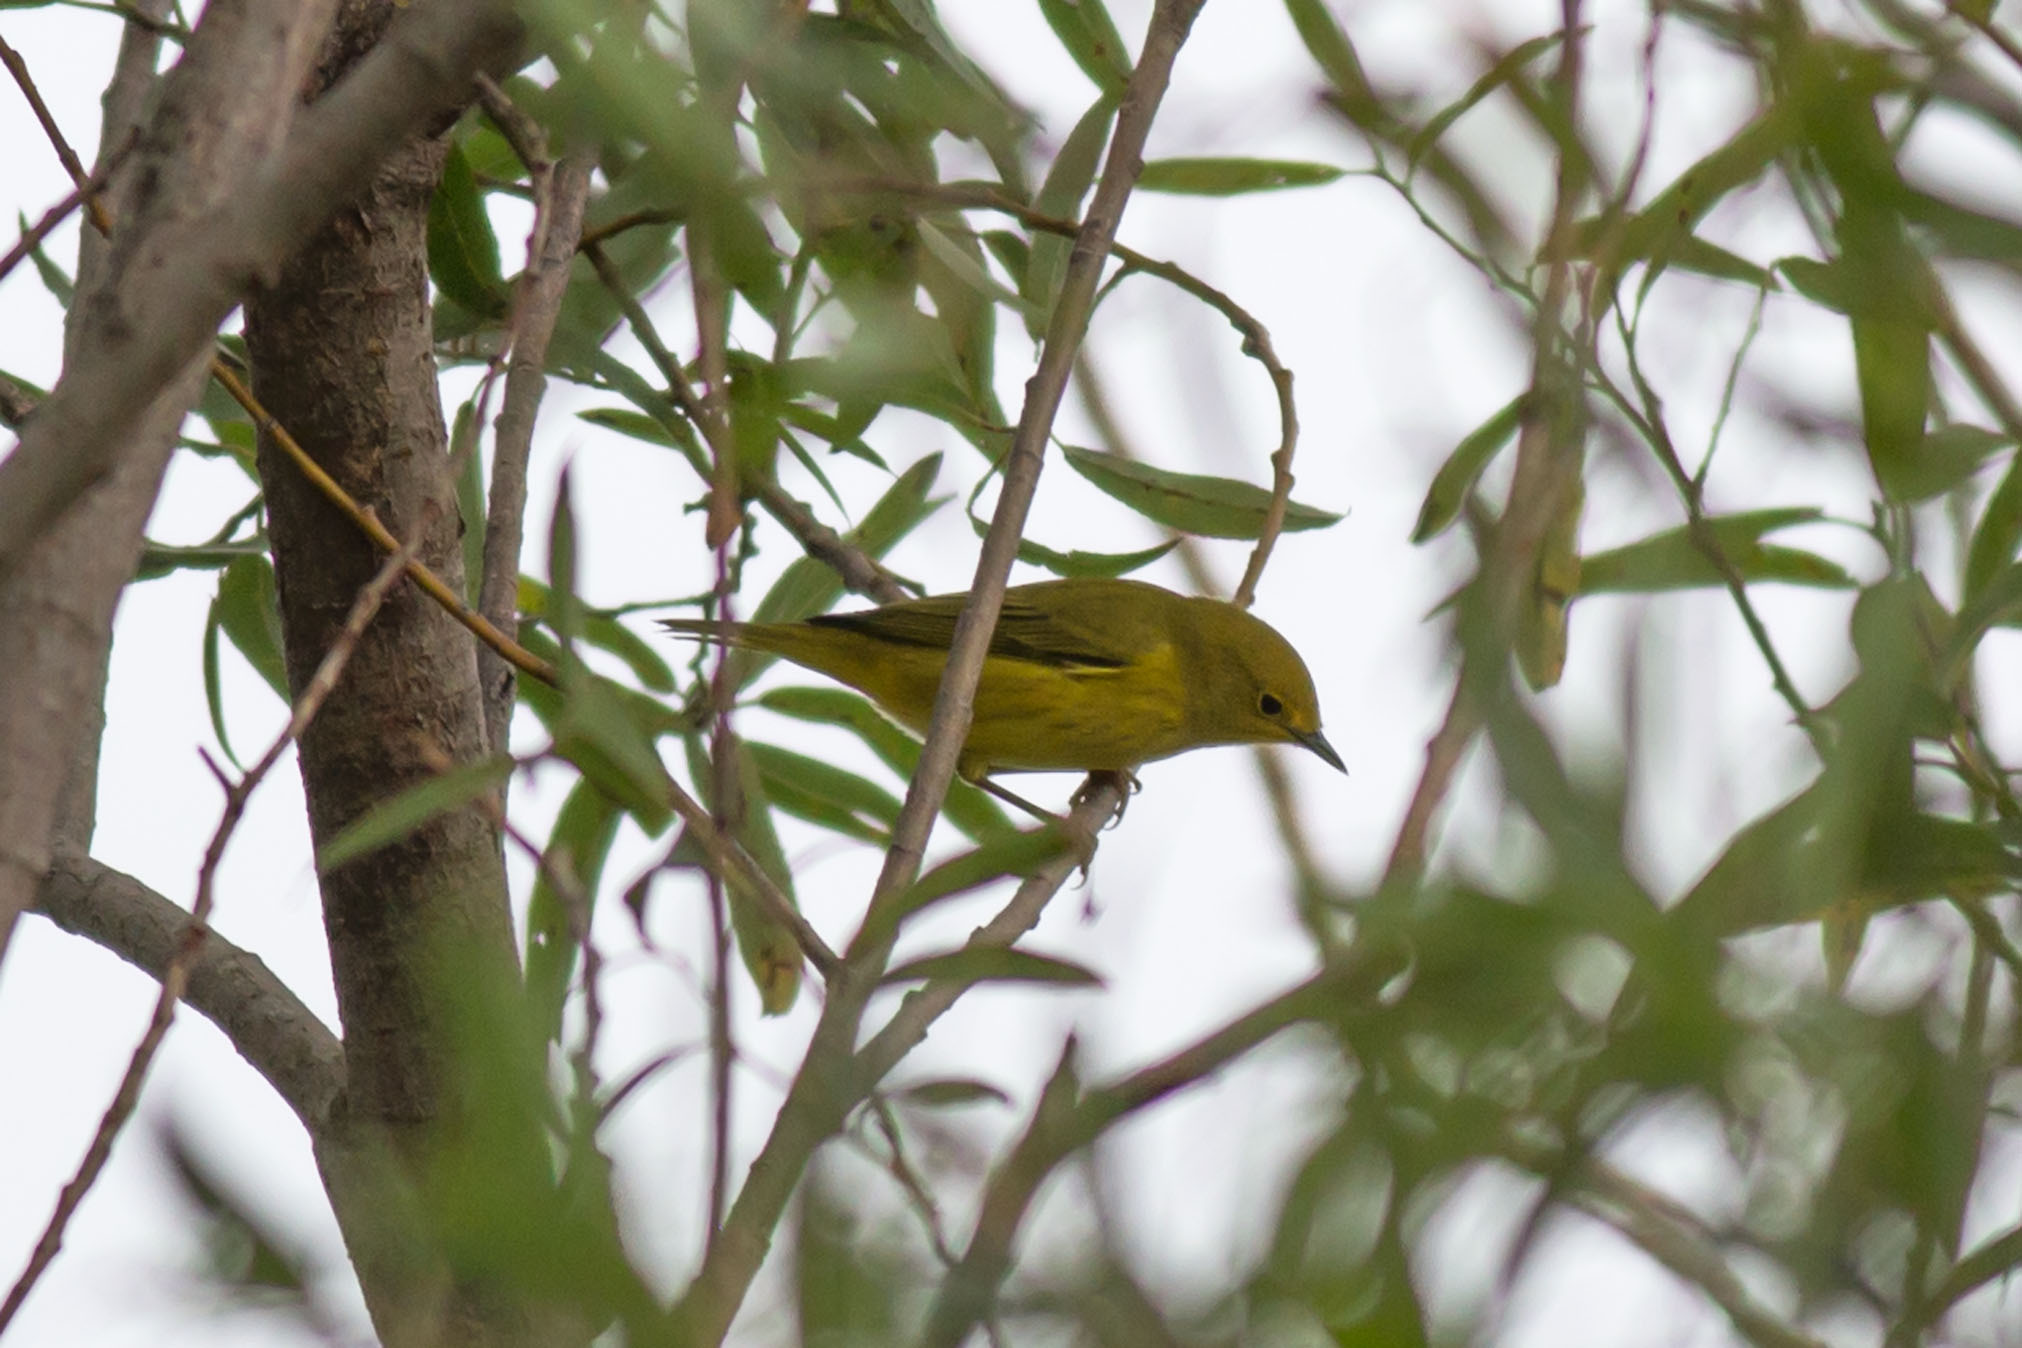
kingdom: Animalia
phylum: Chordata
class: Aves
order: Passeriformes
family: Parulidae
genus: Setophaga
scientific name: Setophaga petechia
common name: Yellow warbler
